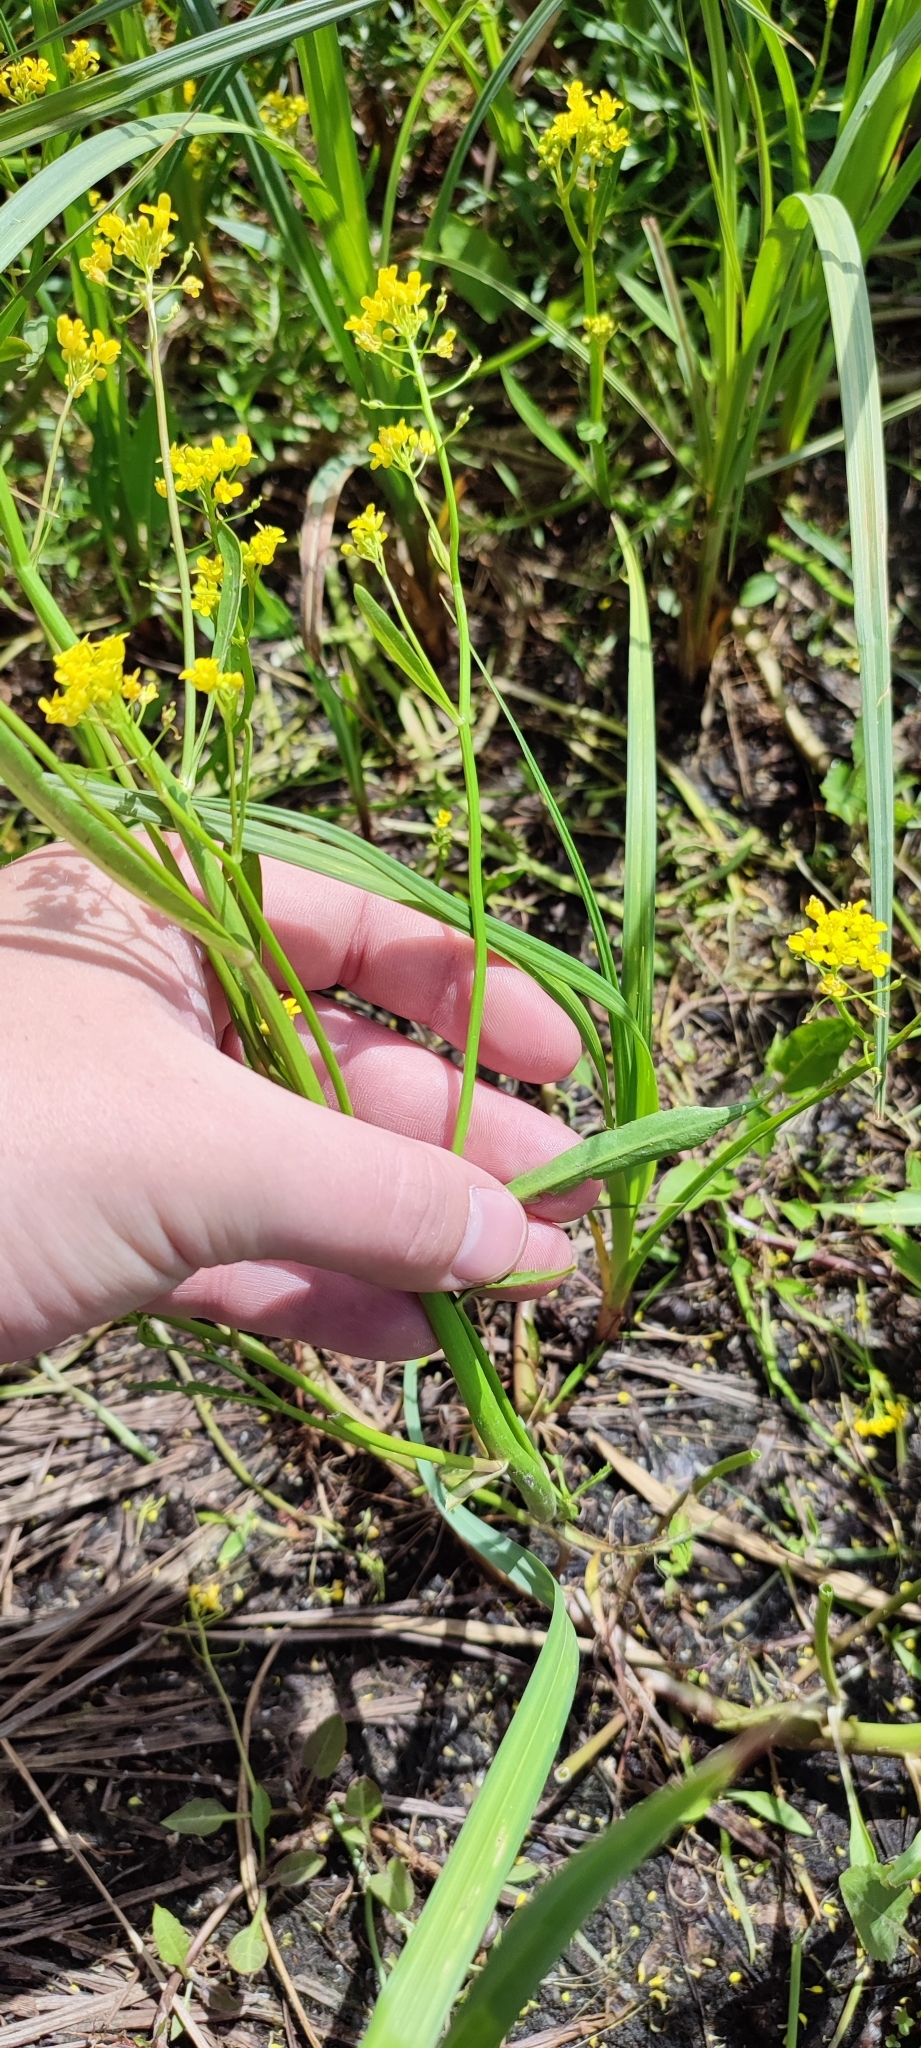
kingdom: Plantae
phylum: Tracheophyta
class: Magnoliopsida
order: Brassicales
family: Brassicaceae
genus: Rorippa
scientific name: Rorippa amphibia
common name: Great yellow-cress
